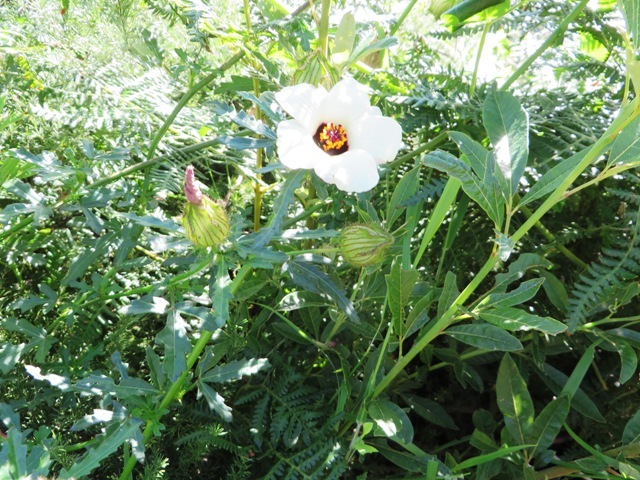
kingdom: Plantae
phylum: Tracheophyta
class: Magnoliopsida
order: Malvales
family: Malvaceae
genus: Hibiscus
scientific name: Hibiscus trionum
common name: Bladder ketmia
